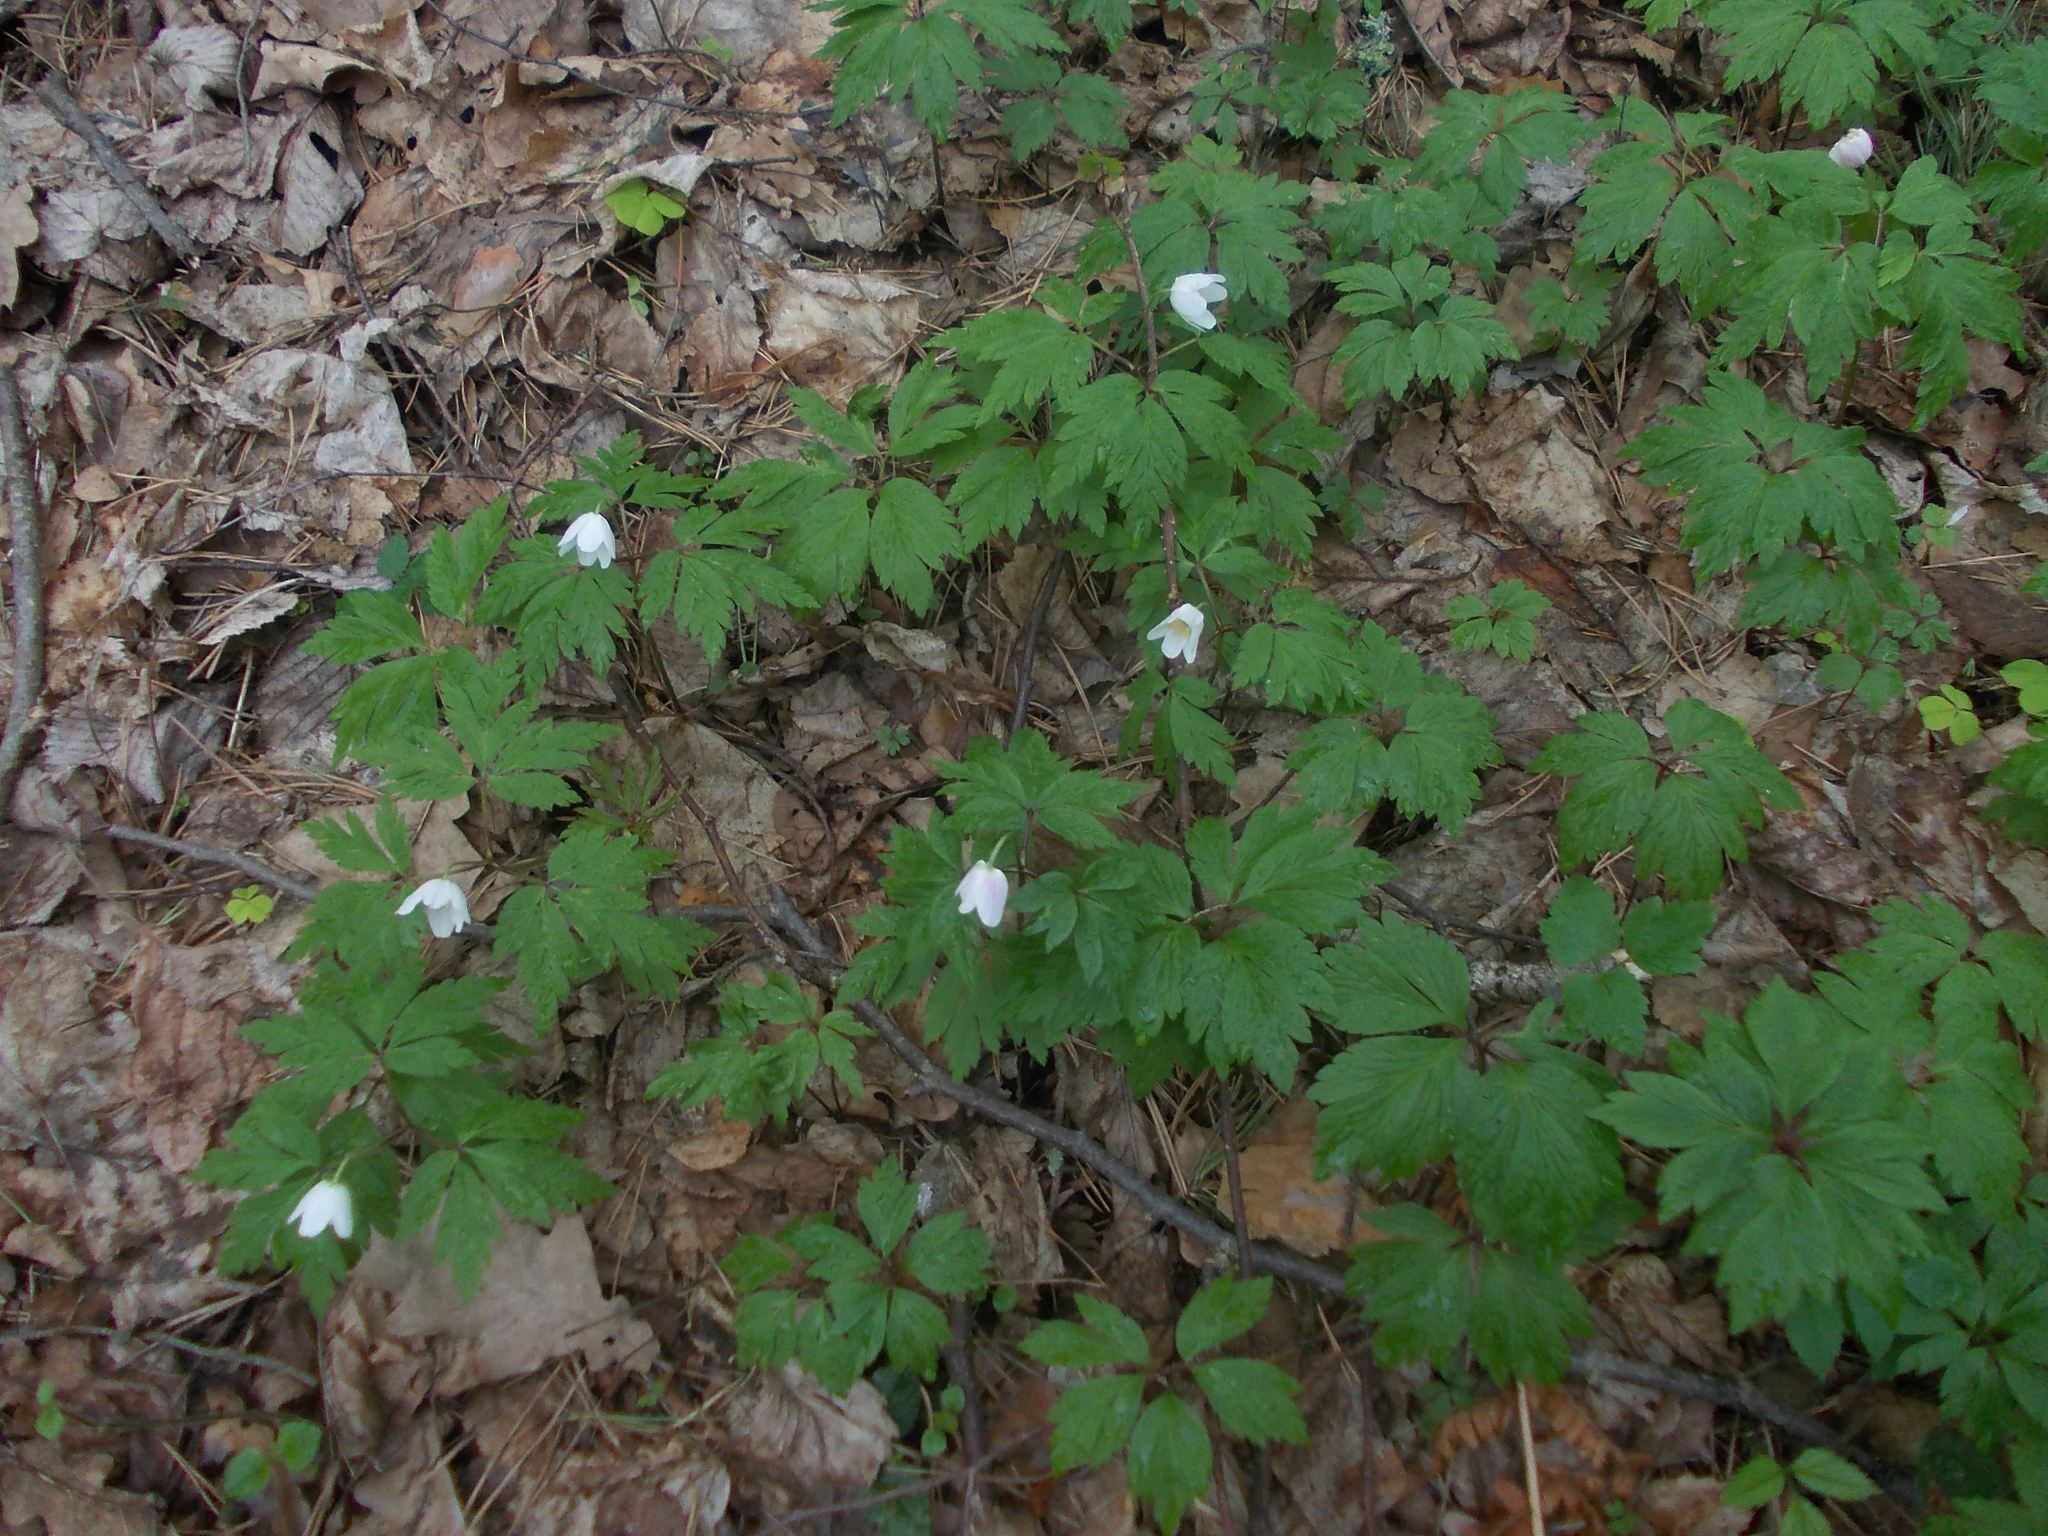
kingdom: Plantae
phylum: Tracheophyta
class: Magnoliopsida
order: Ranunculales
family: Ranunculaceae
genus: Anemone
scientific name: Anemone nemorosa
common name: Wood anemone
